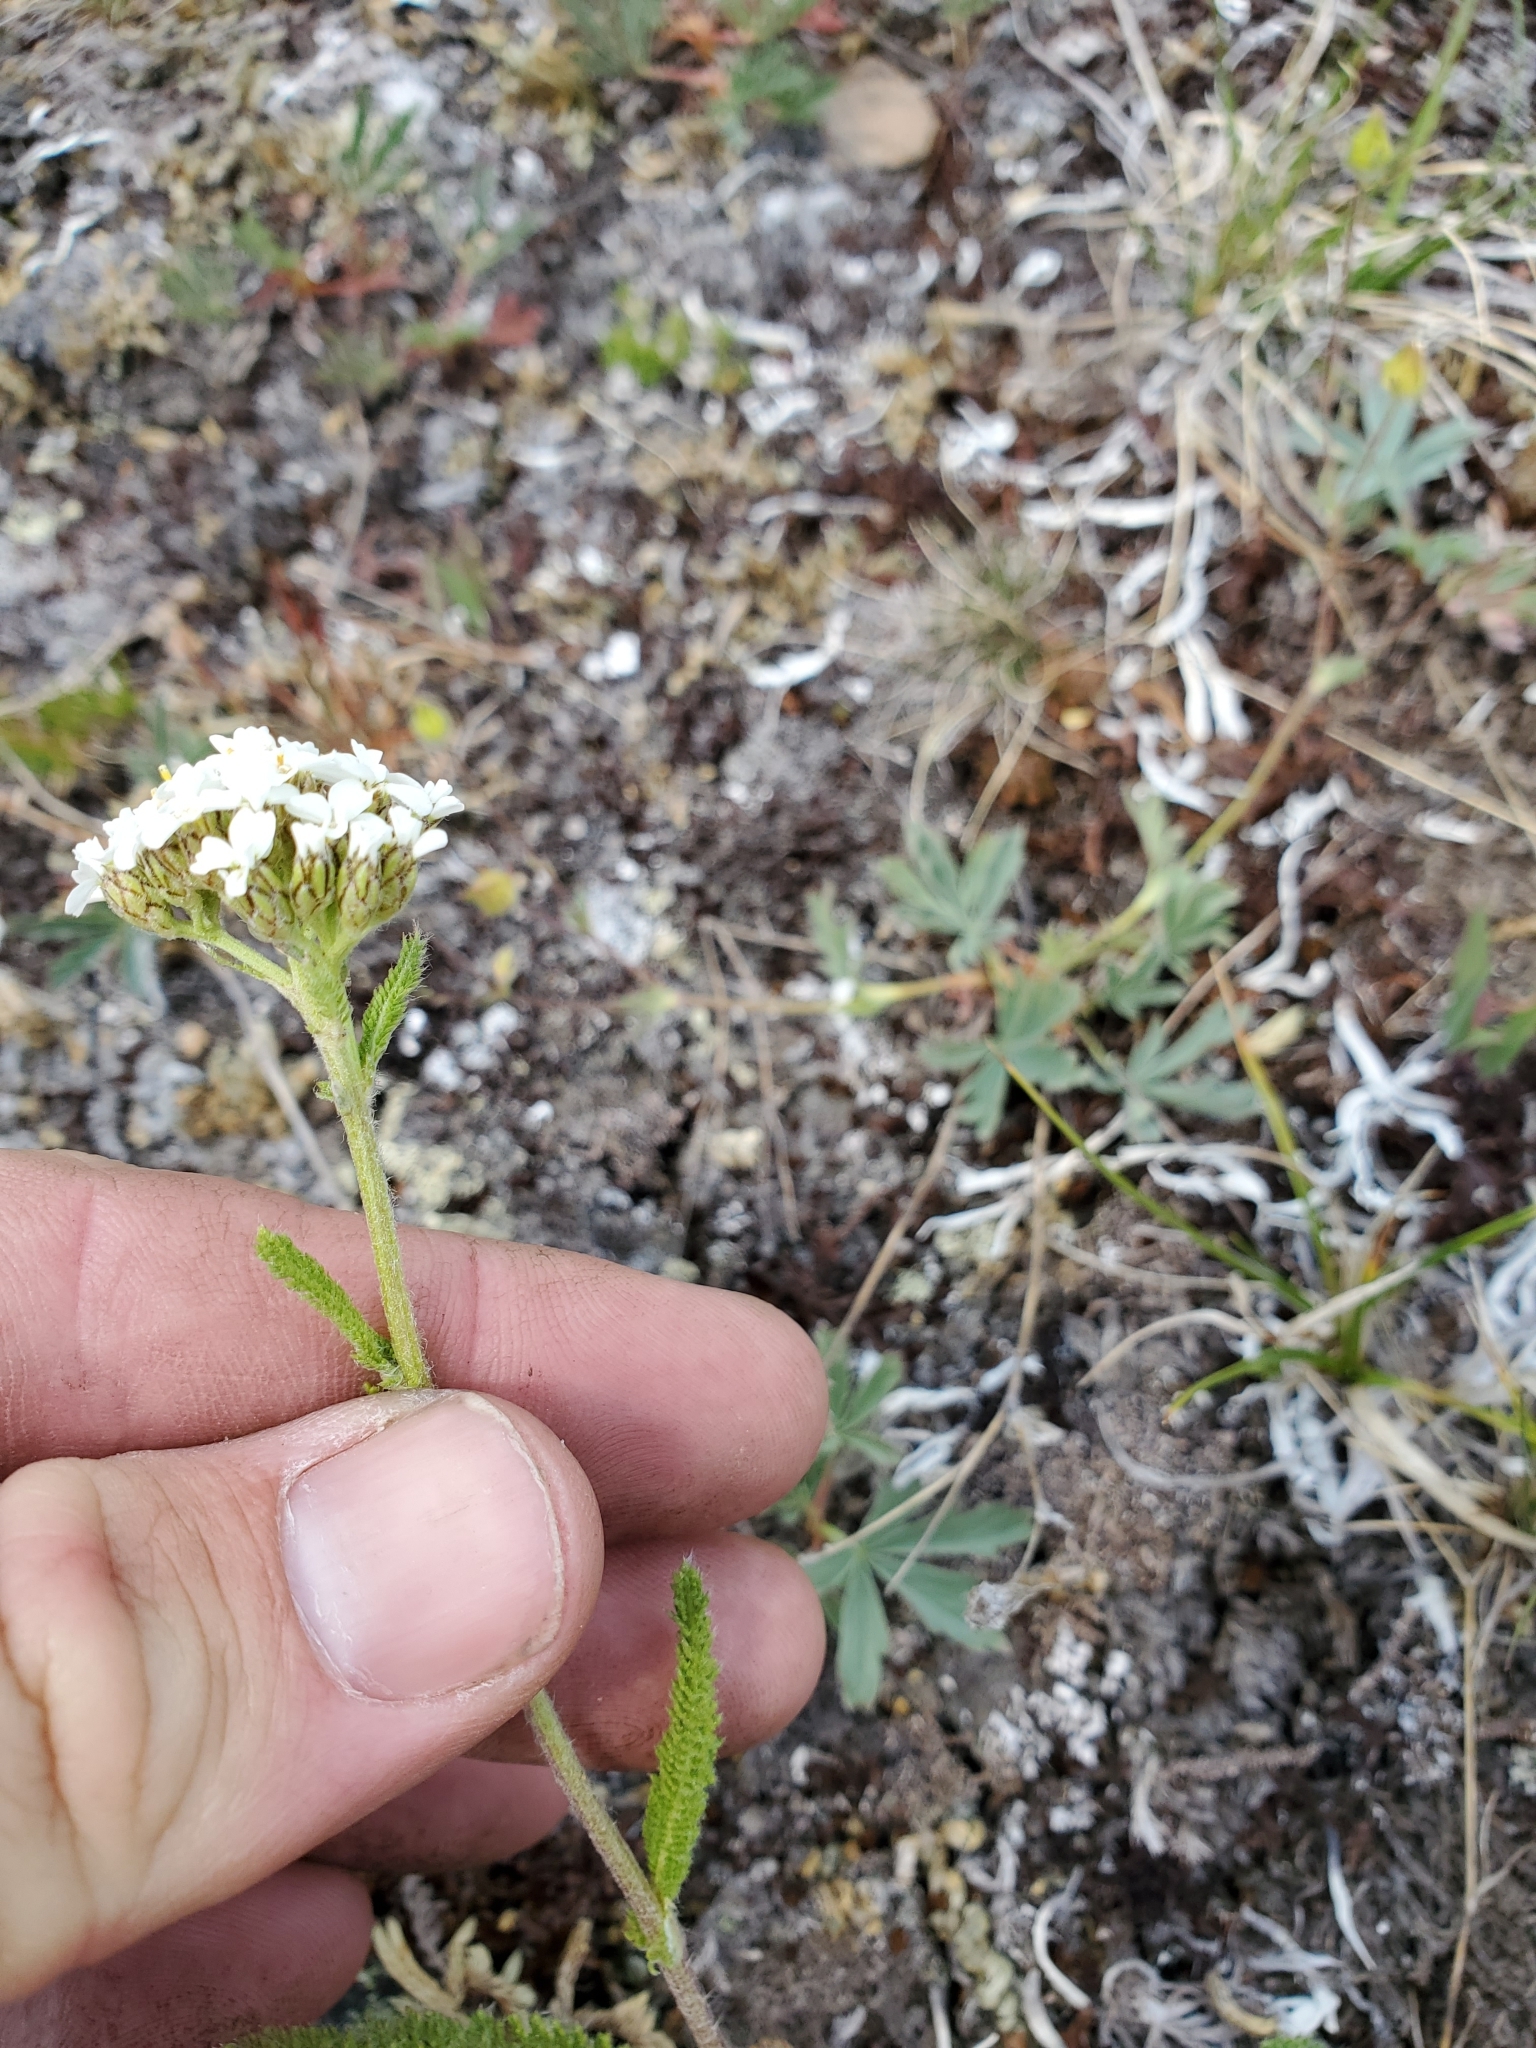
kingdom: Plantae
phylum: Tracheophyta
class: Magnoliopsida
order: Asterales
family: Asteraceae
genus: Achillea
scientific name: Achillea millefolium
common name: Yarrow
